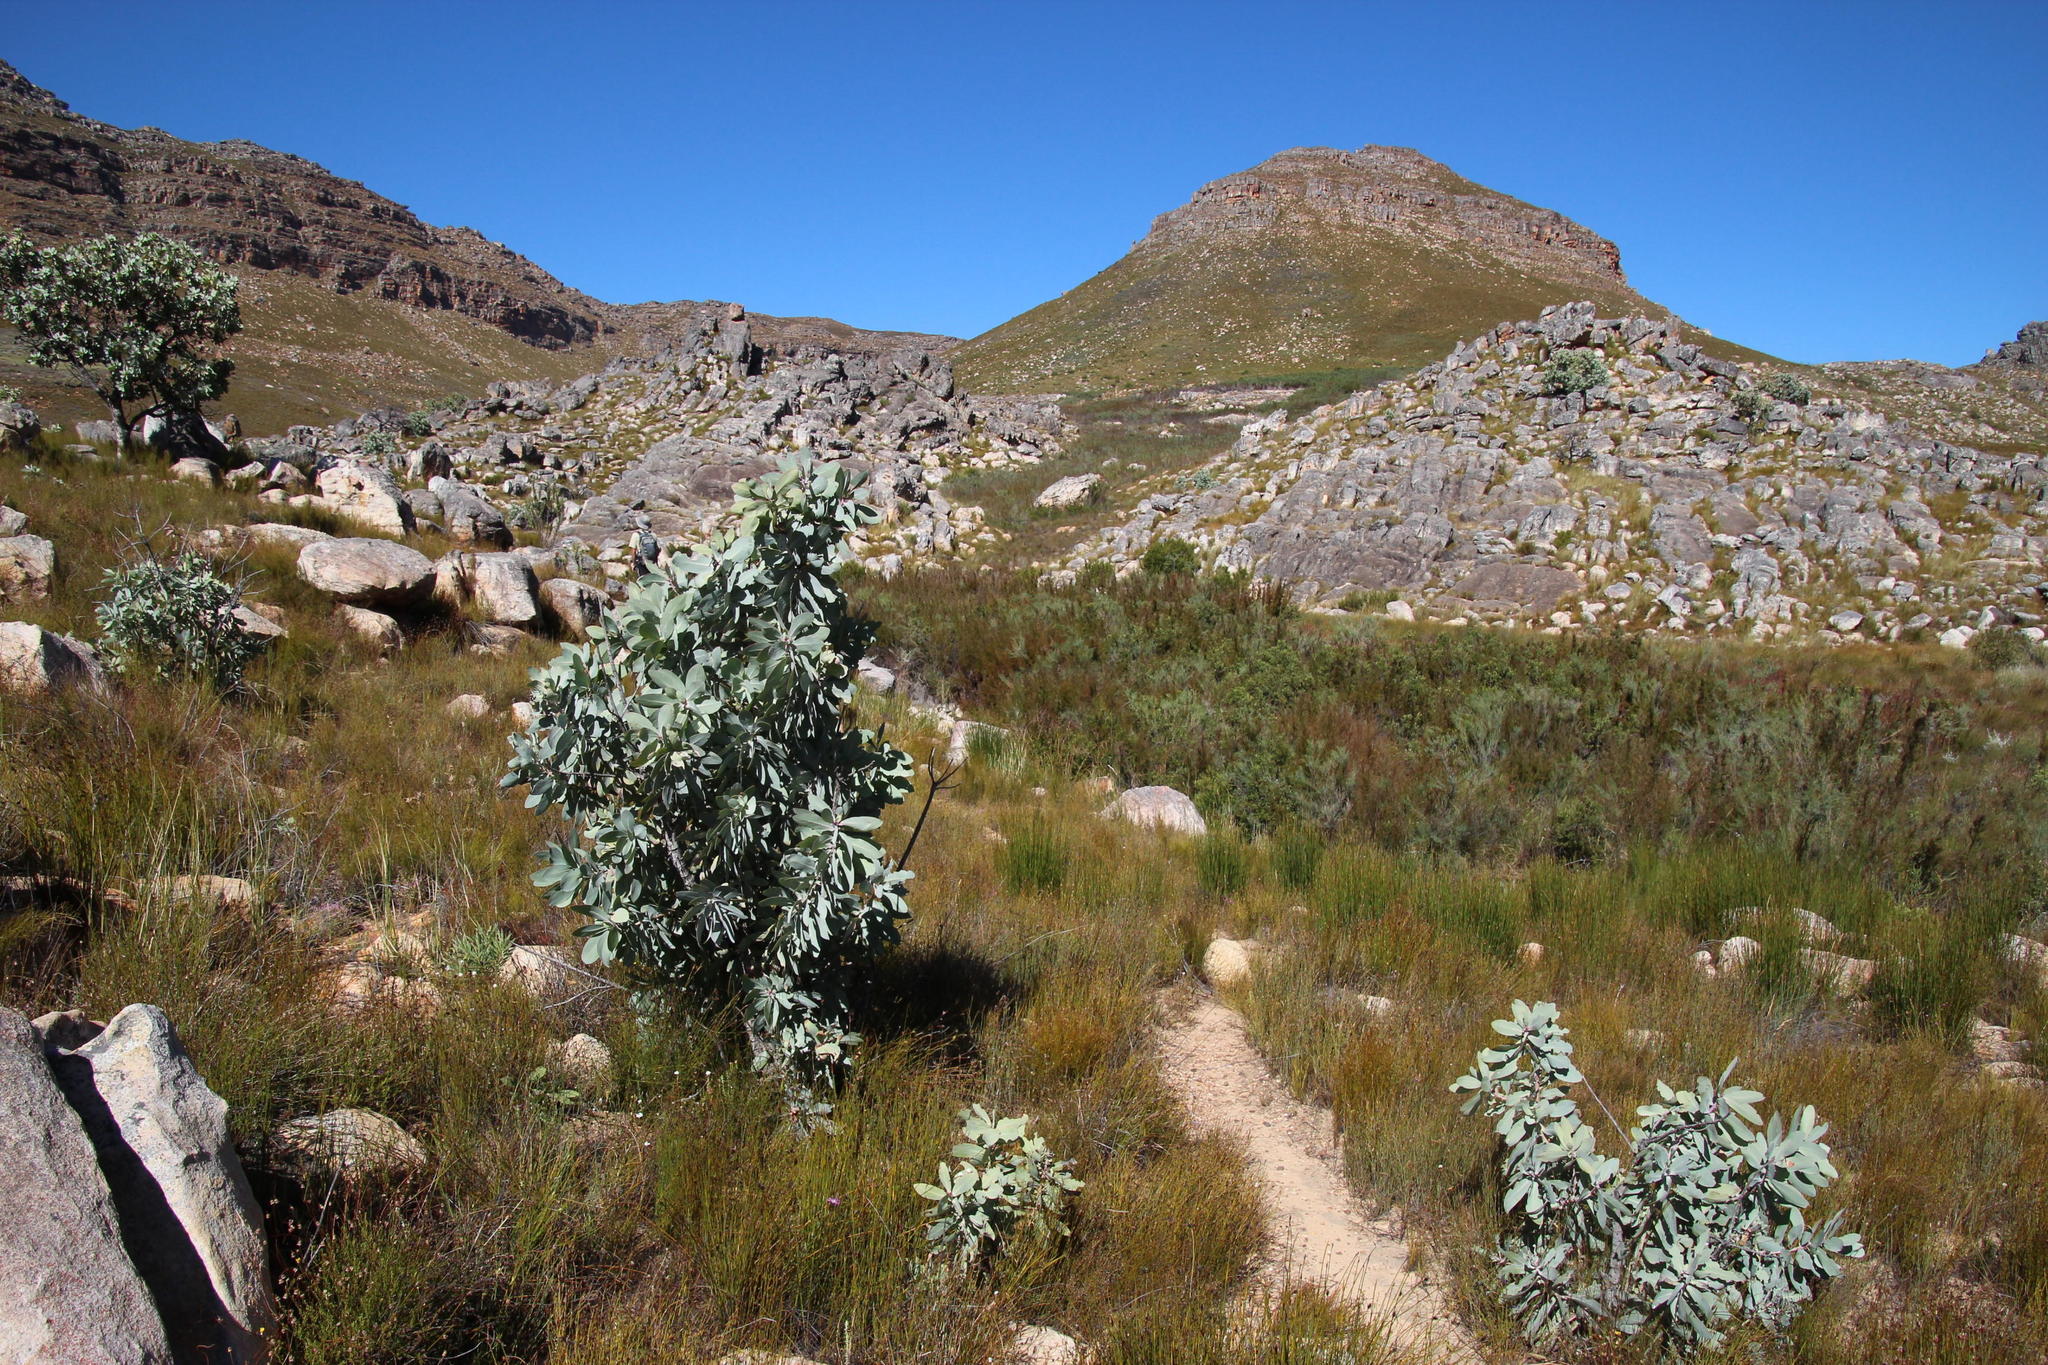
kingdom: Plantae
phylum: Tracheophyta
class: Magnoliopsida
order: Proteales
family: Proteaceae
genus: Protea
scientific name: Protea nitida
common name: Tree protea
